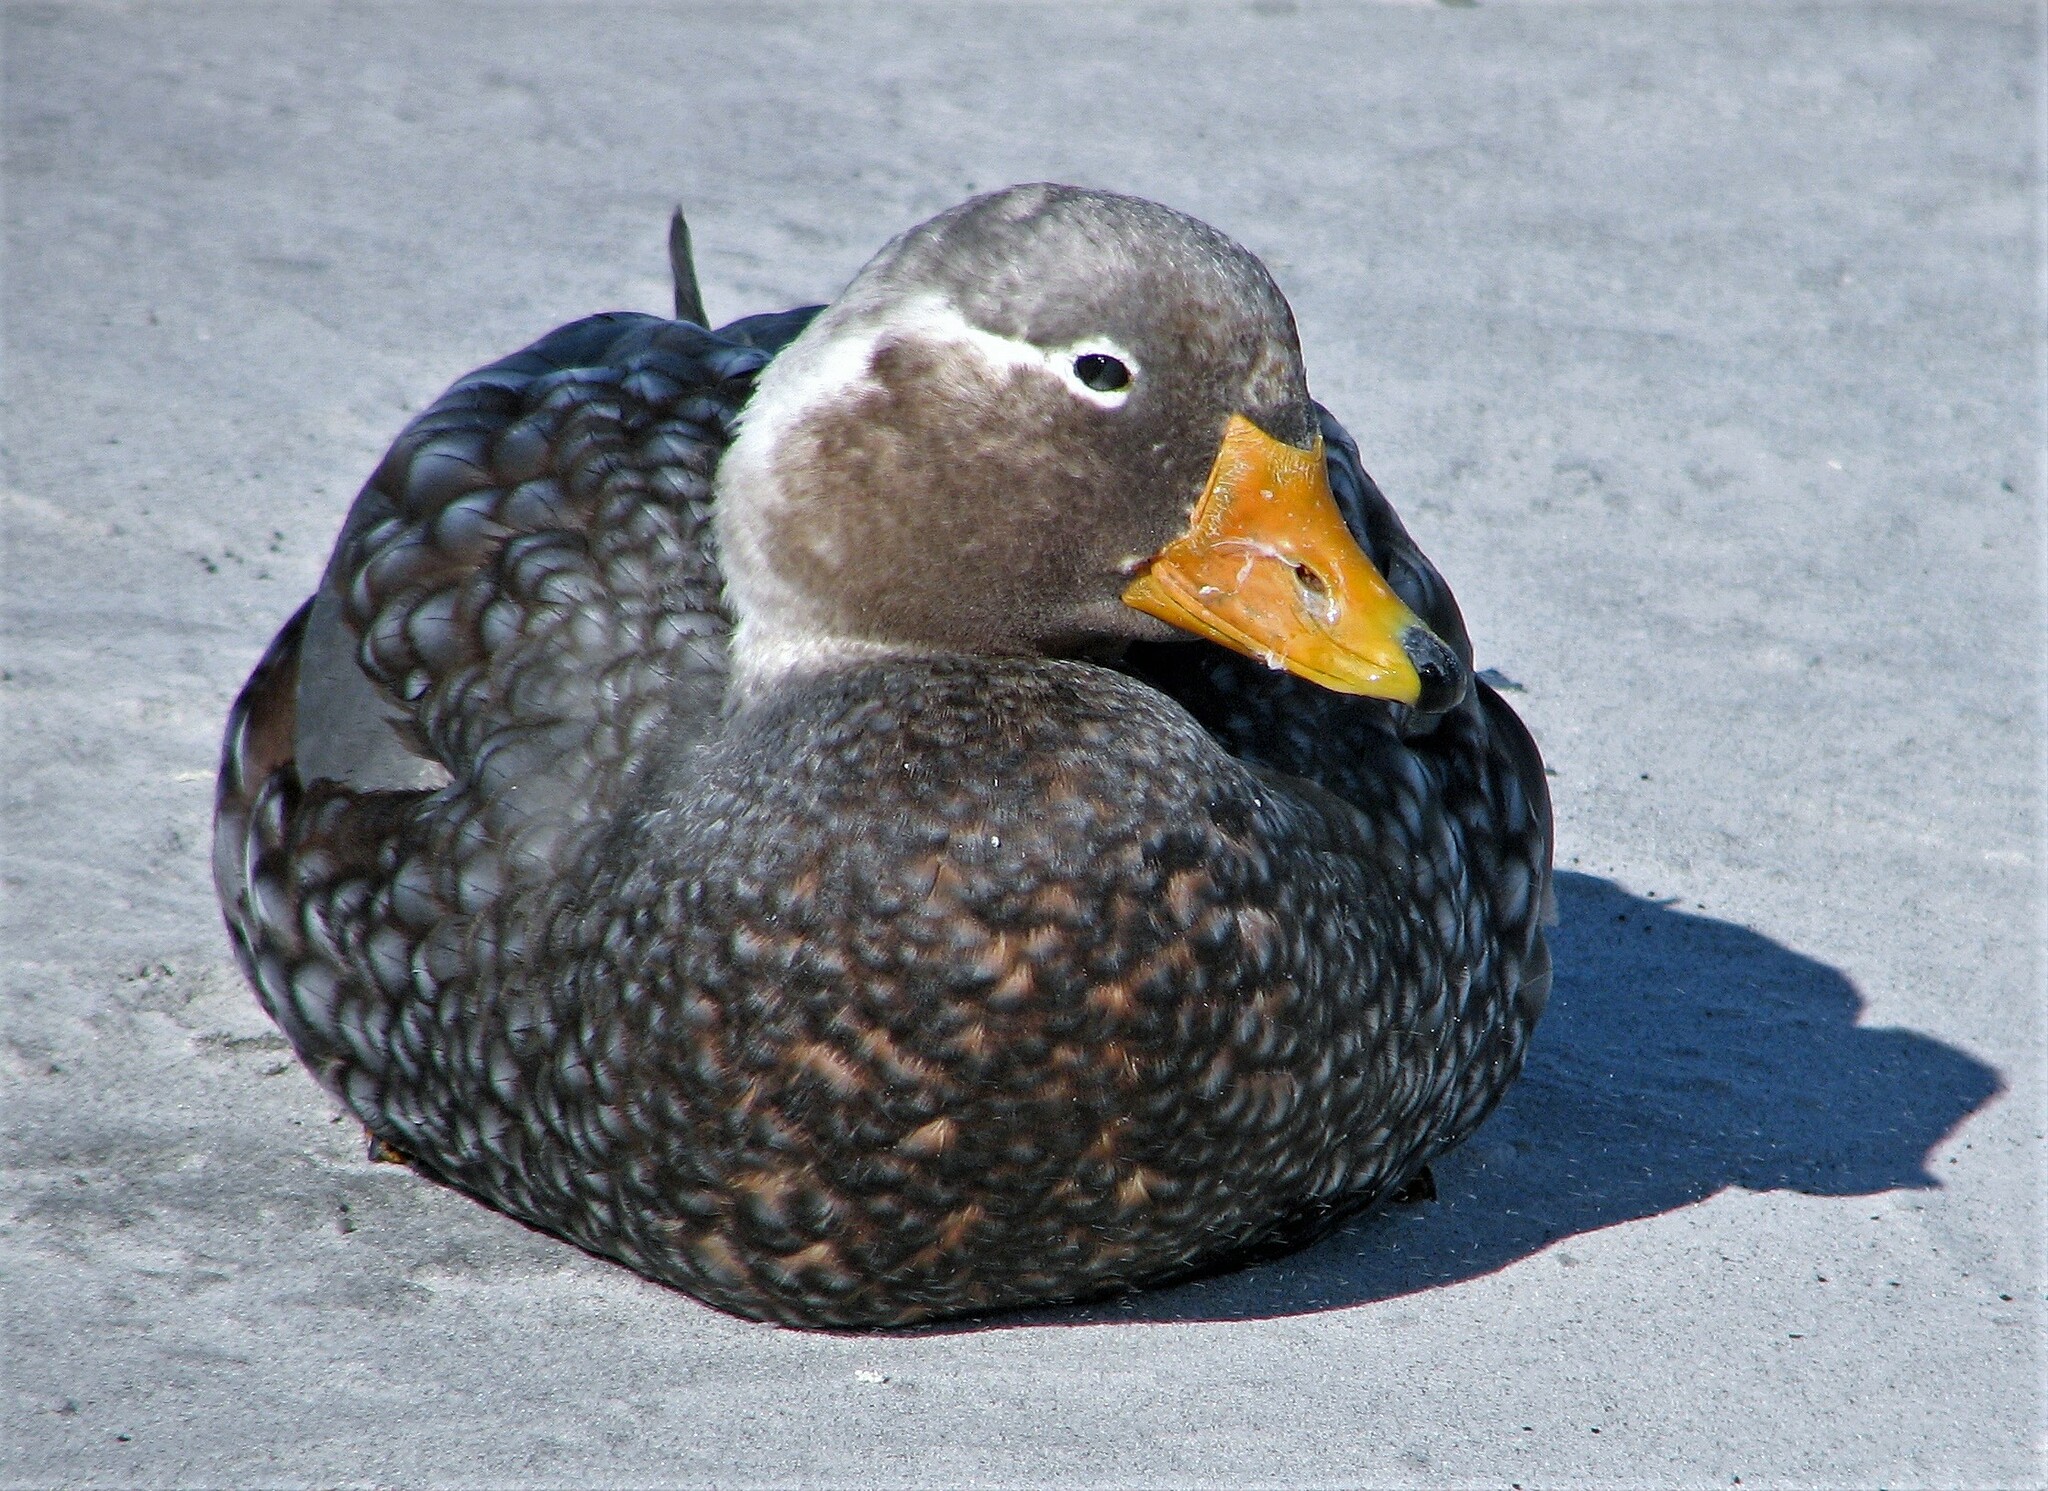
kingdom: Animalia
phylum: Chordata
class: Aves
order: Anseriformes
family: Anatidae
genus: Tachyeres
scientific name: Tachyeres brachypterus
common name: Falkland steamer duck
